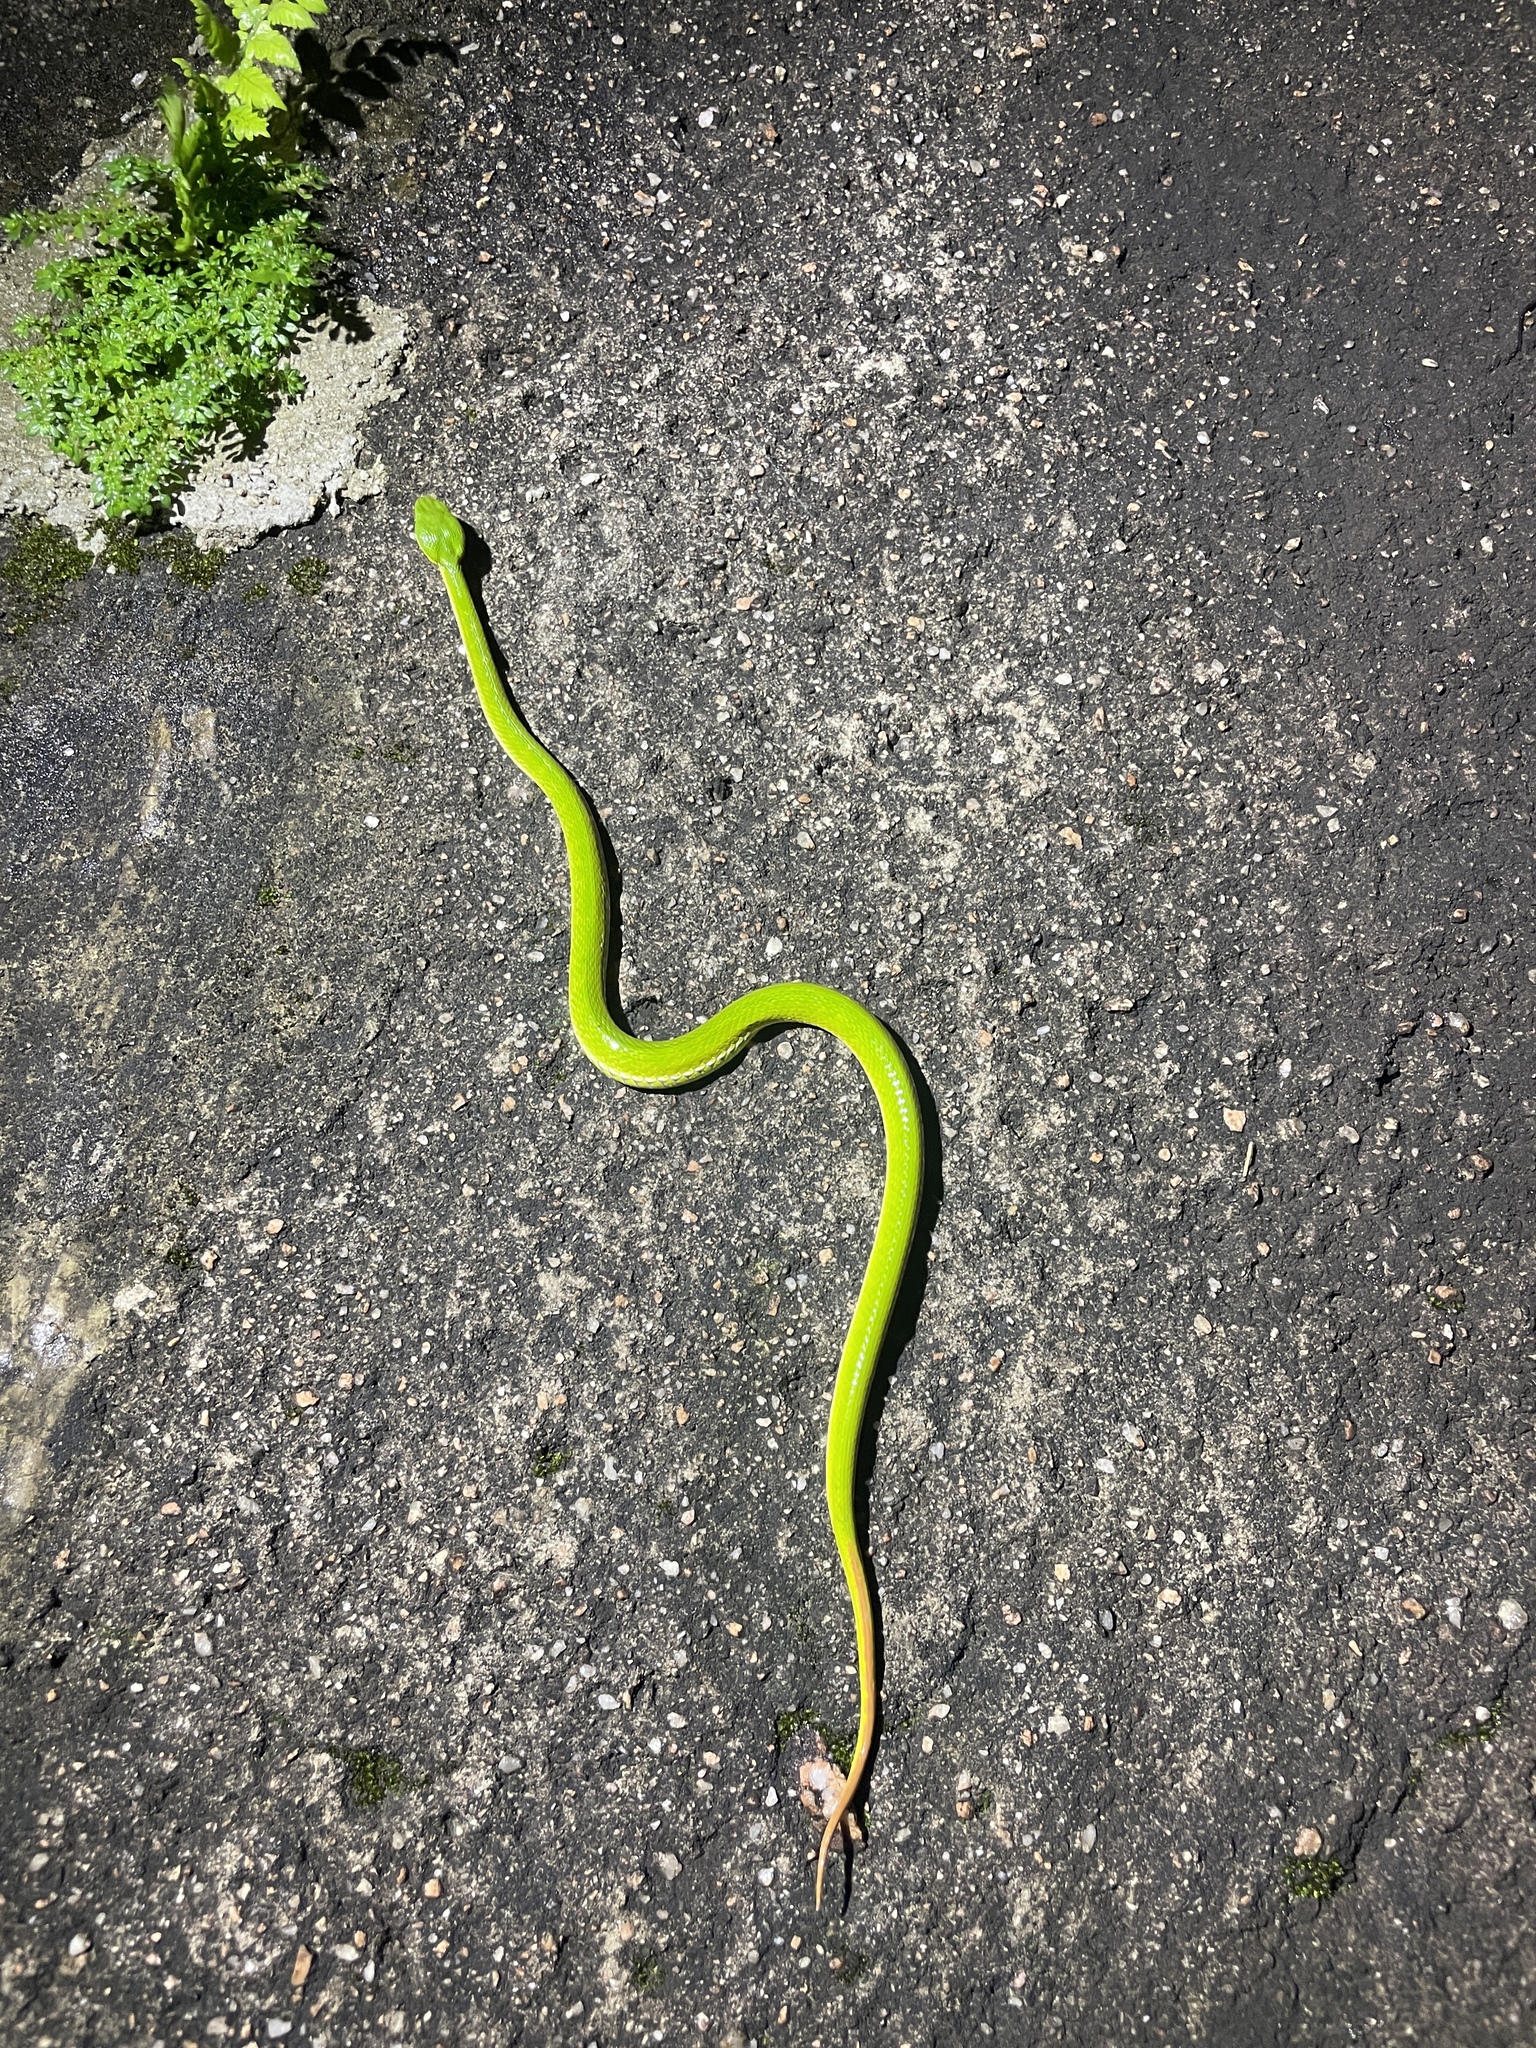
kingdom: Animalia
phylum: Chordata
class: Squamata
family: Viperidae
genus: Trimeresurus
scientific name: Trimeresurus albolabris
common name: White-lipped pitviper
